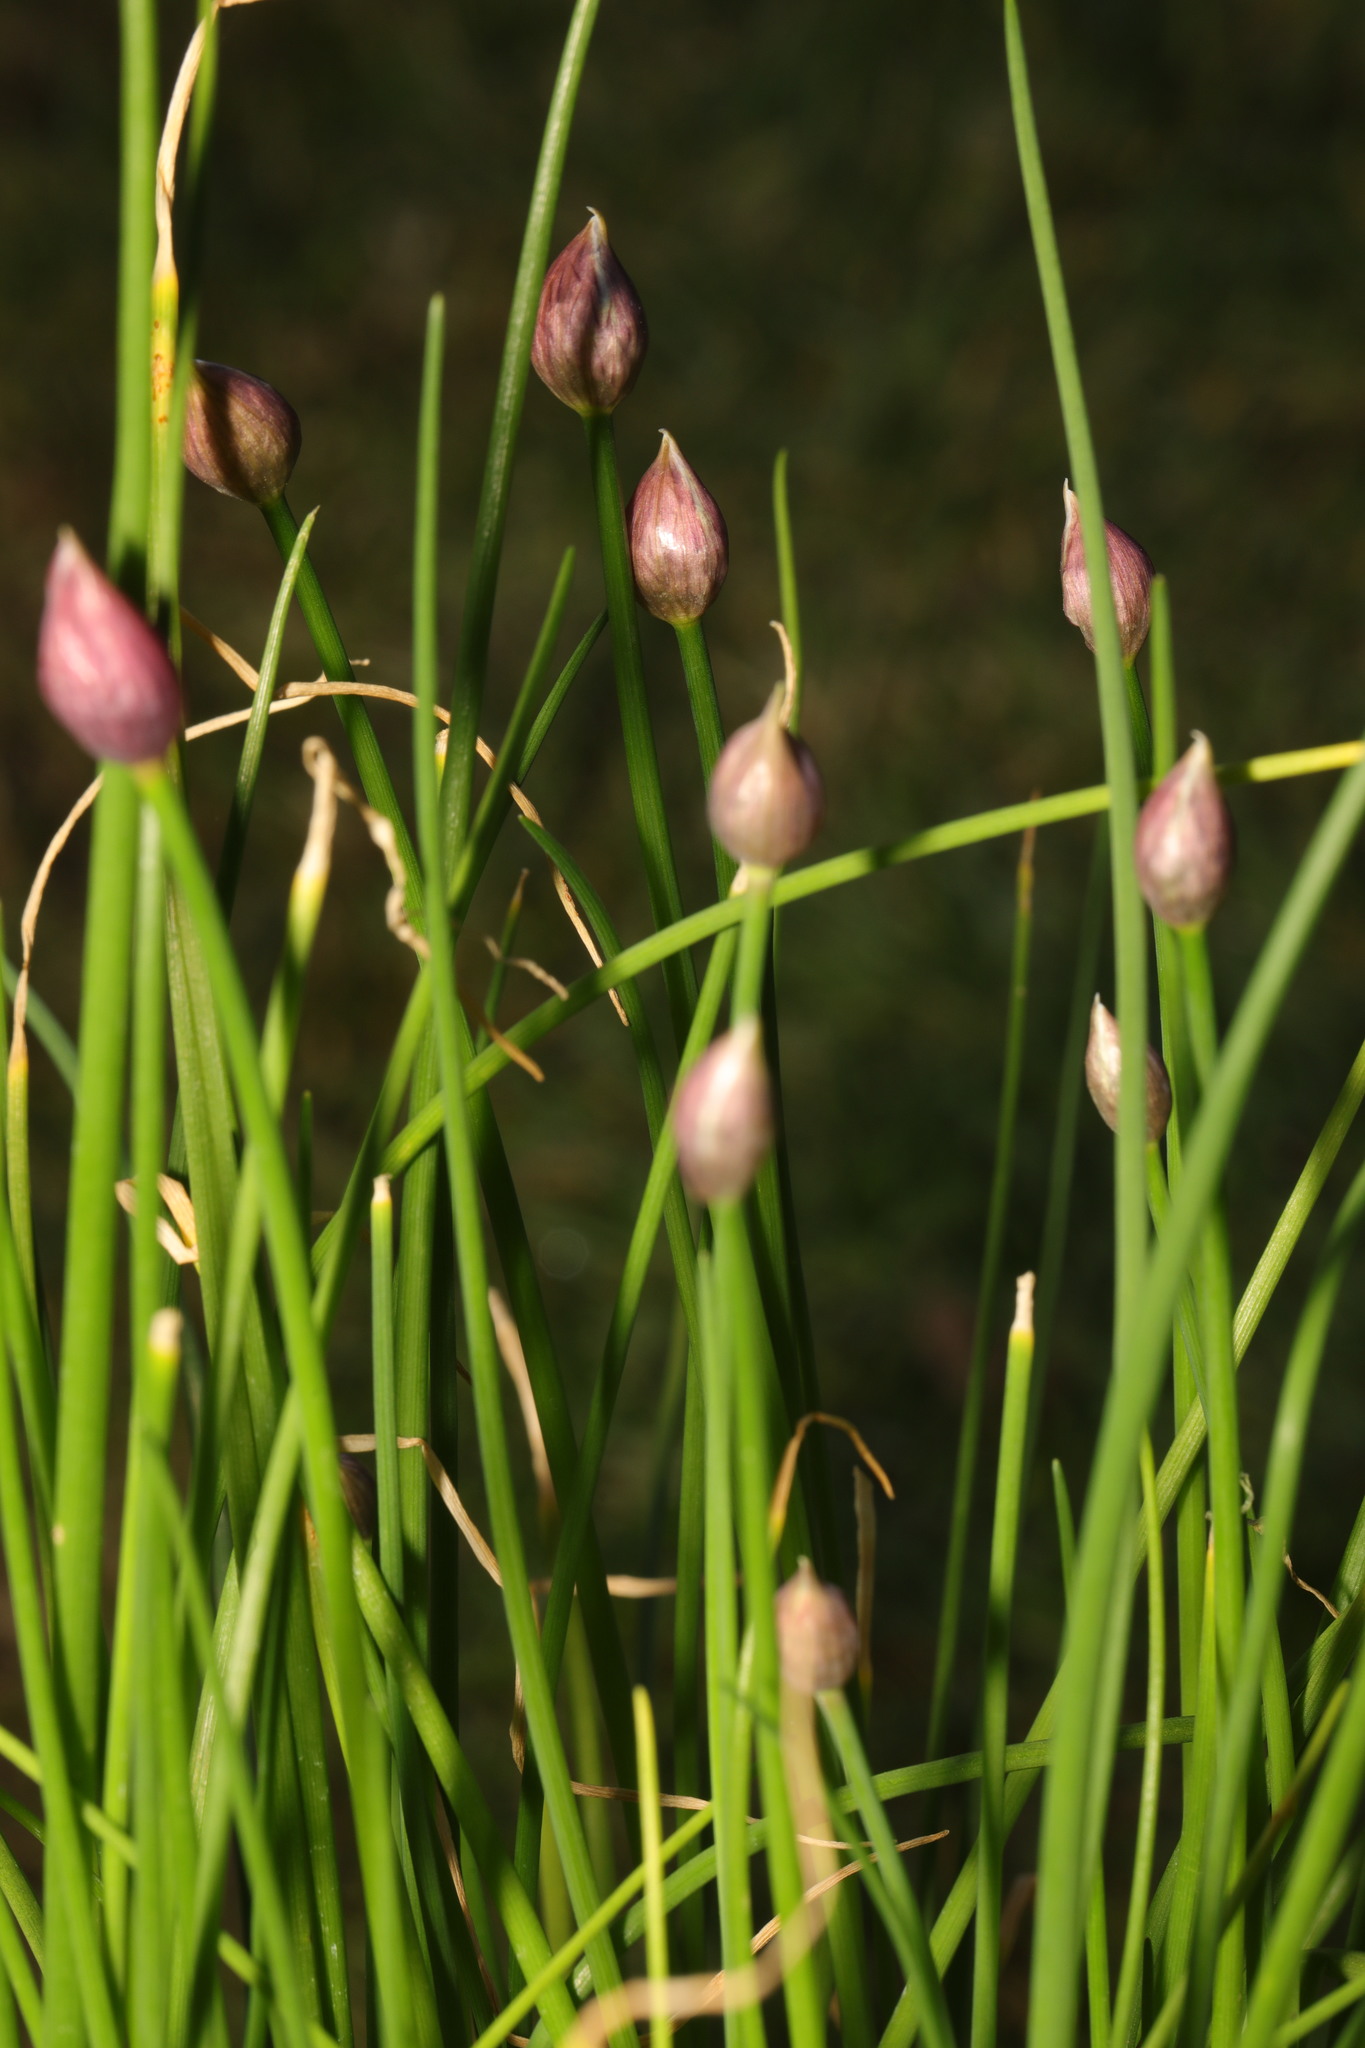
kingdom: Plantae
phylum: Tracheophyta
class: Liliopsida
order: Asparagales
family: Amaryllidaceae
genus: Allium
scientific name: Allium schoenoprasum
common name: Chives
